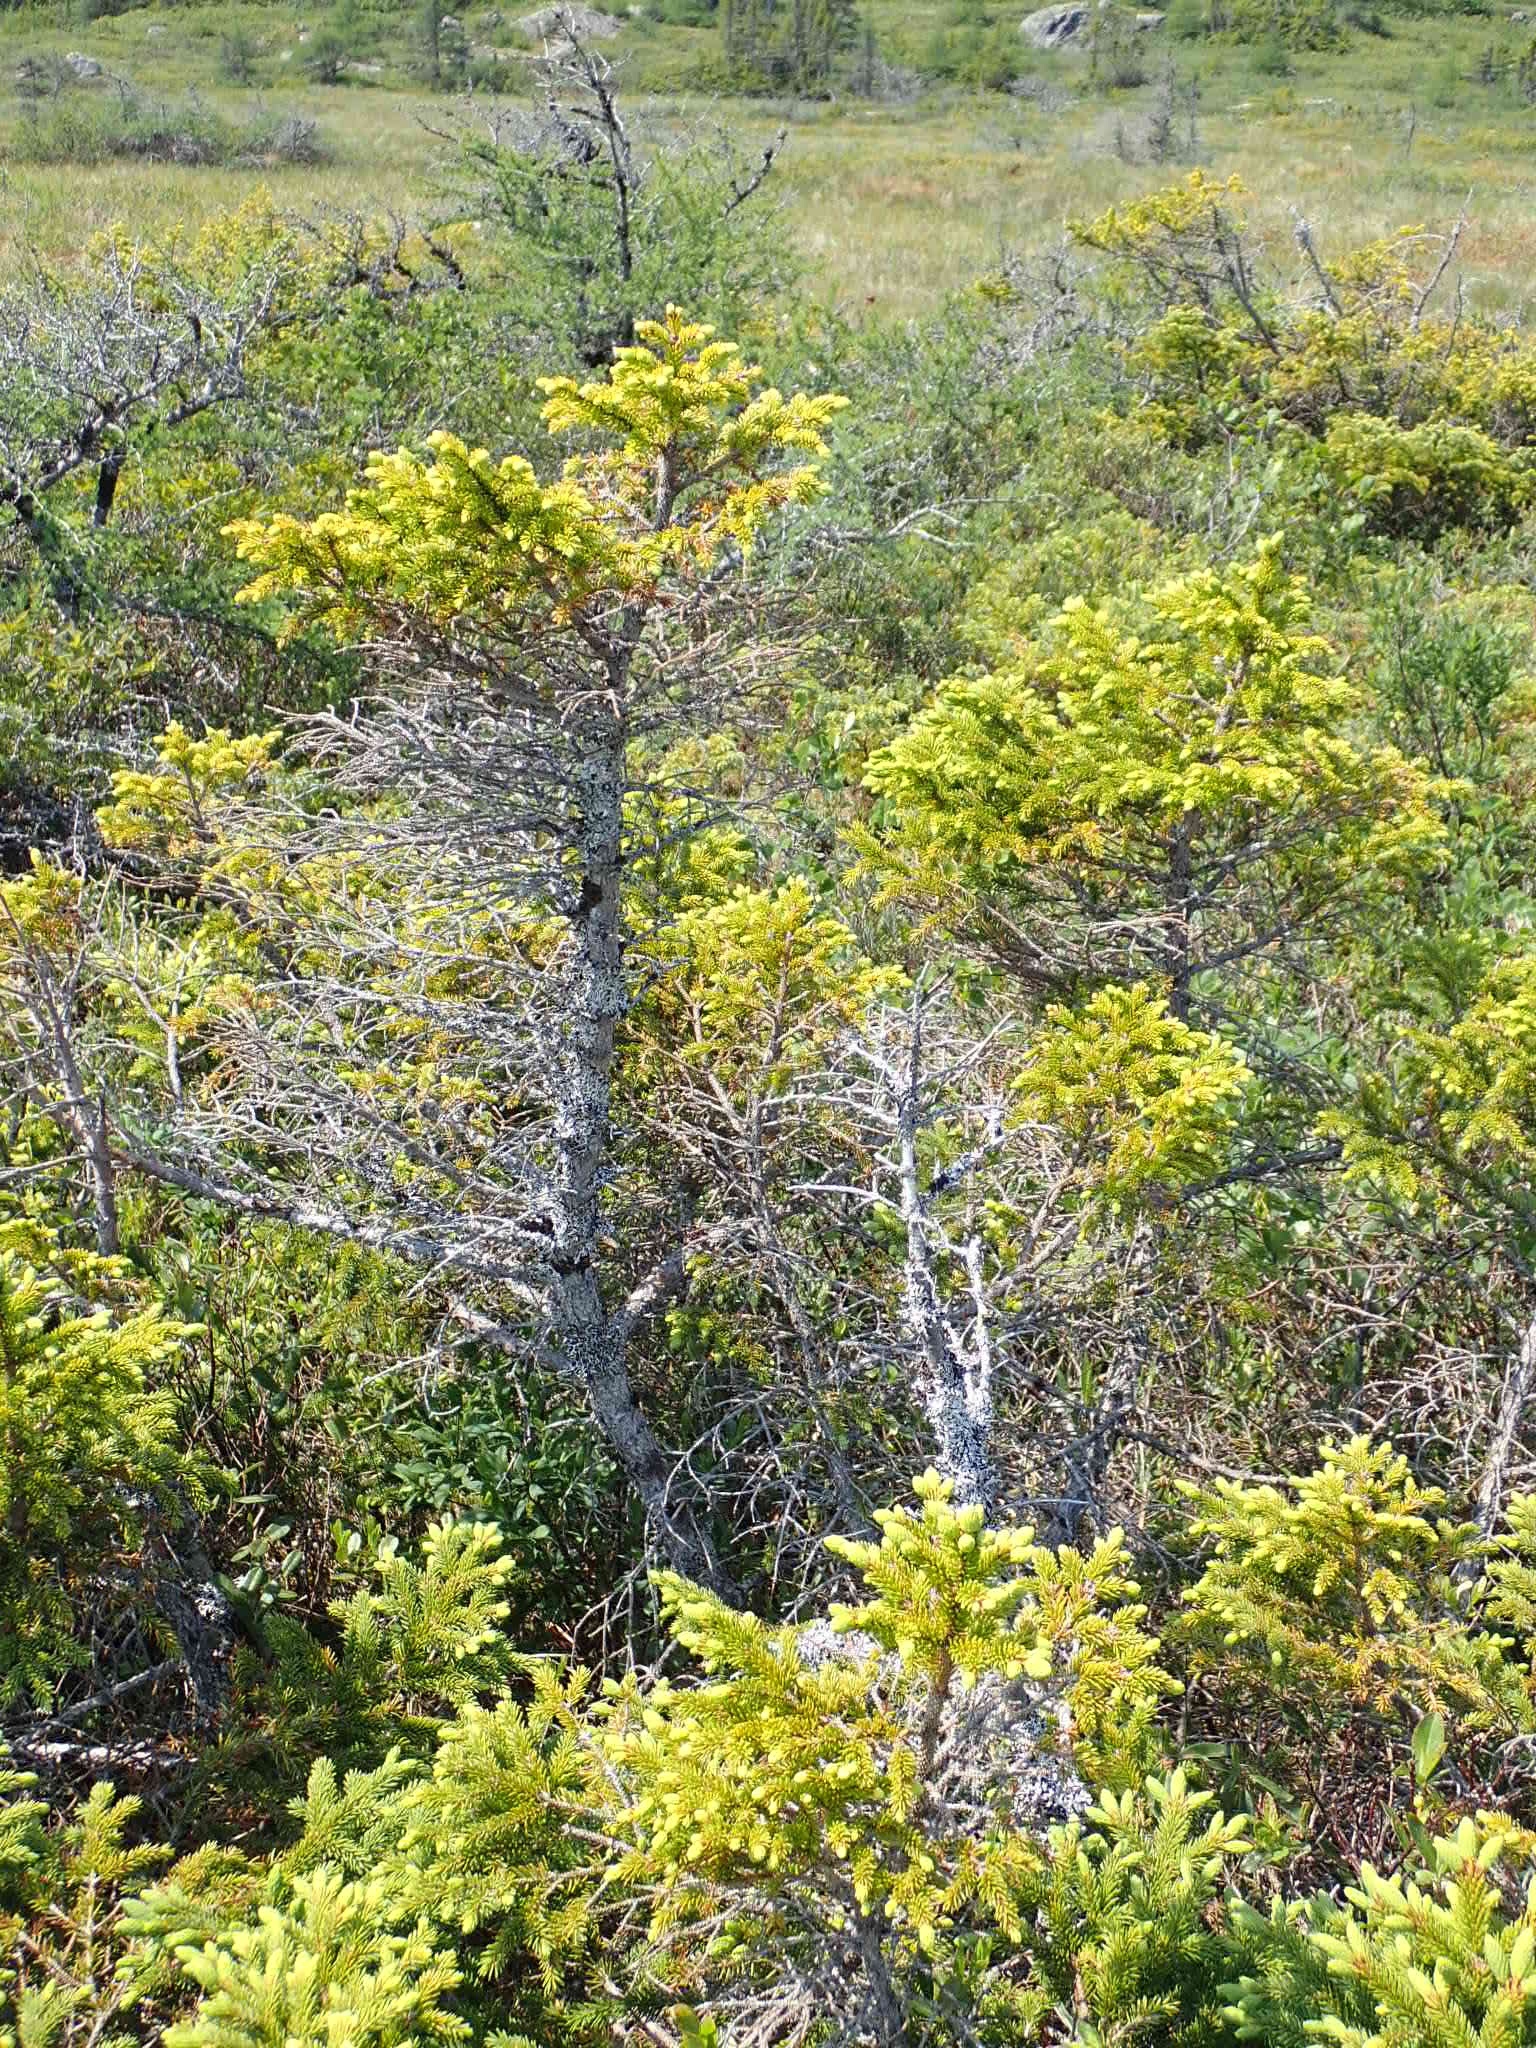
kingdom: Plantae
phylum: Tracheophyta
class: Pinopsida
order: Pinales
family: Pinaceae
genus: Picea
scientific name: Picea mariana
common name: Black spruce
